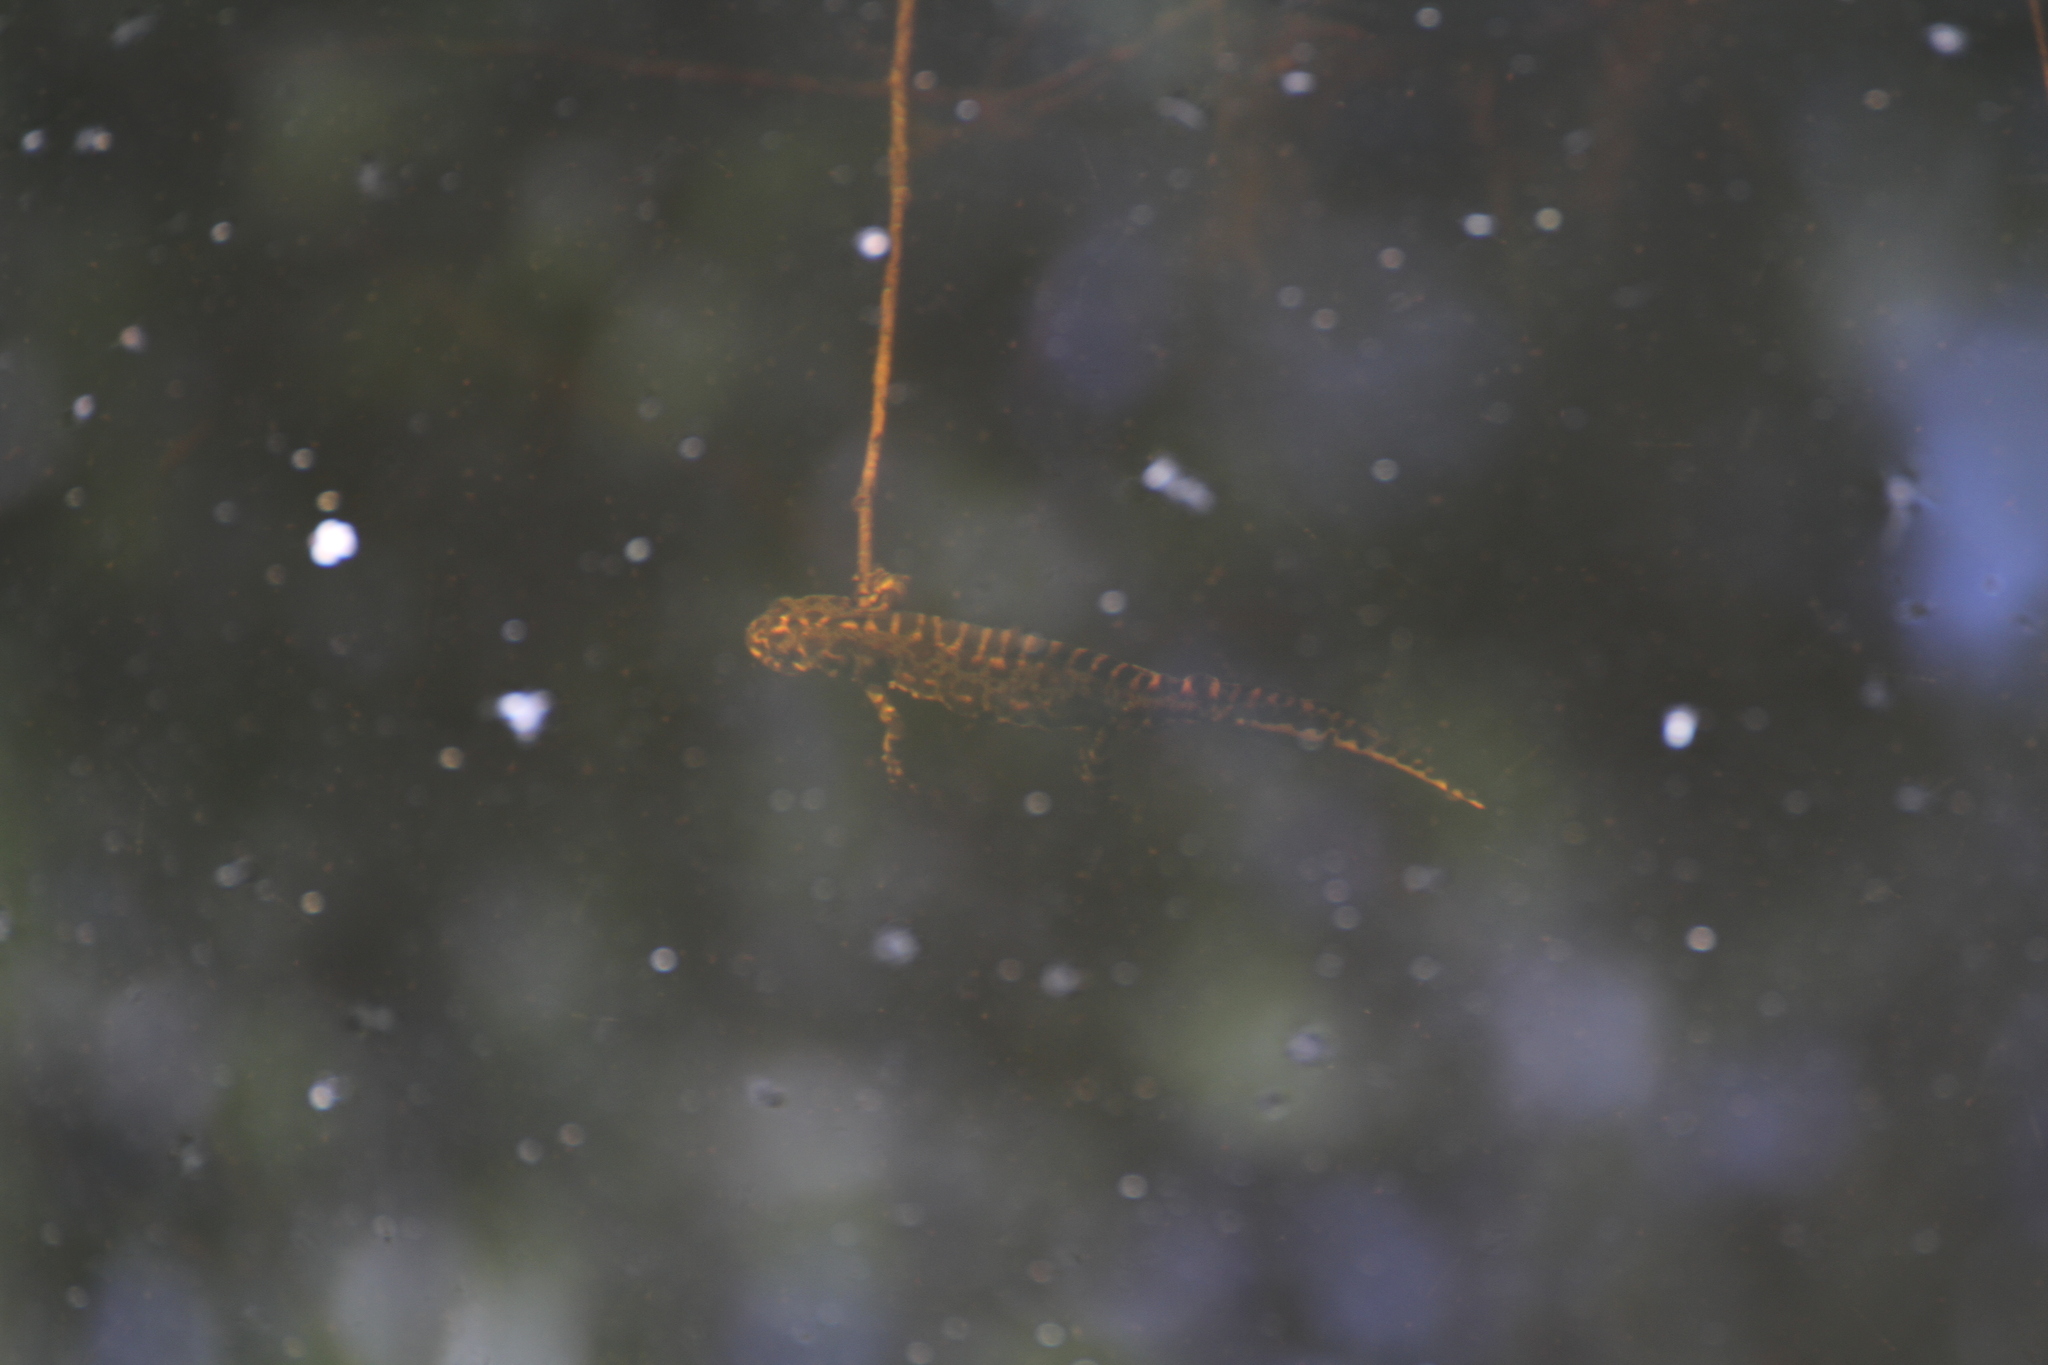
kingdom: Animalia
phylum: Chordata
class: Amphibia
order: Caudata
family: Salamandridae
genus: Triturus
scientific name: Triturus marmoratus
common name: Marbled newt
